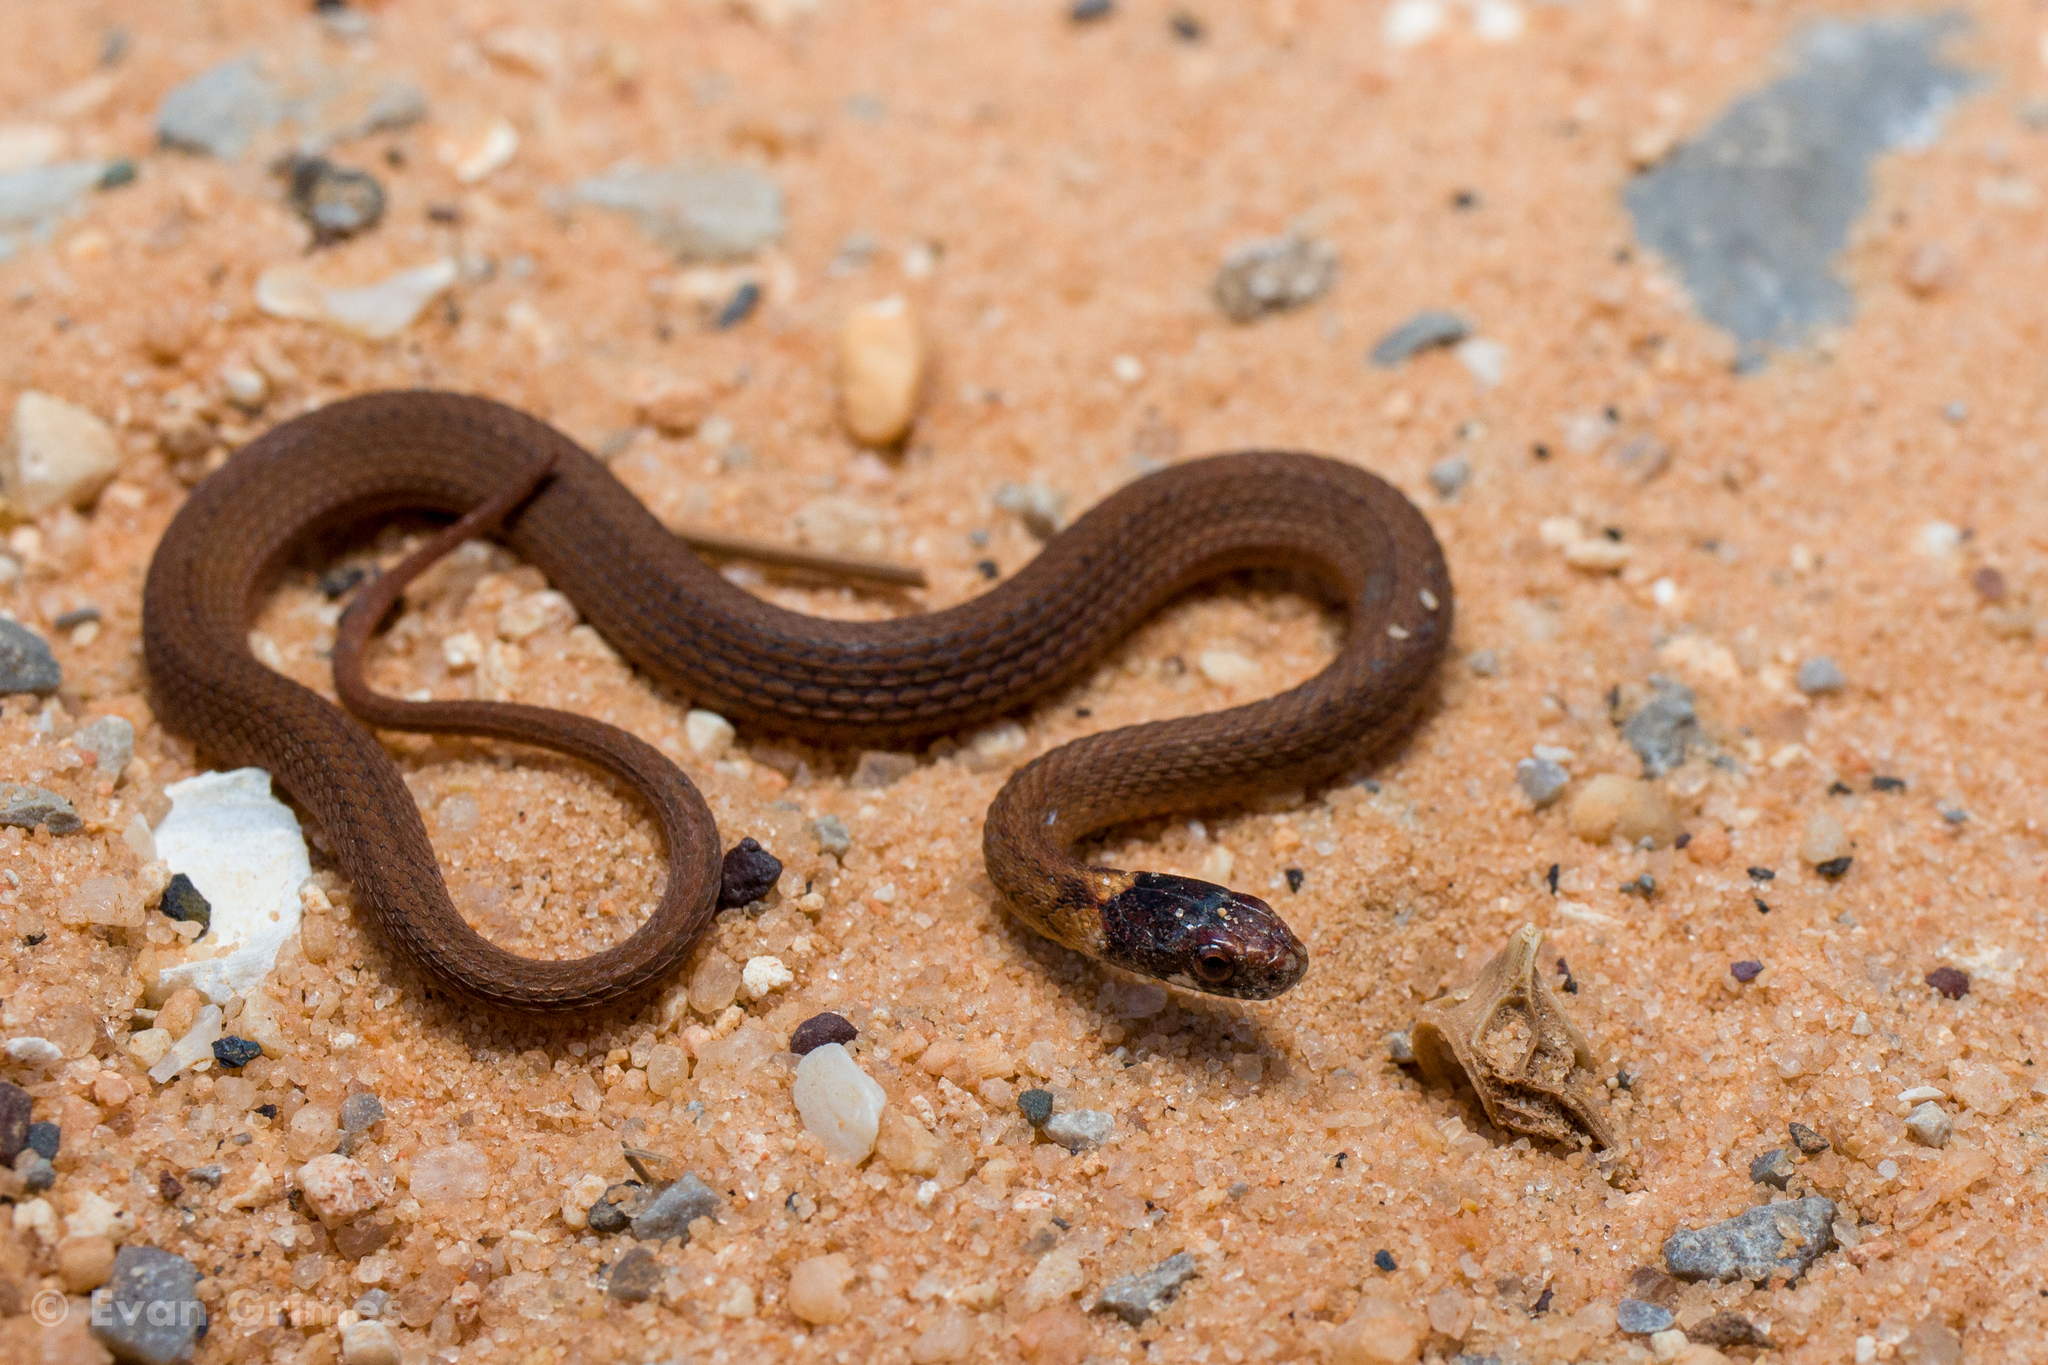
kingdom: Animalia
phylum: Chordata
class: Squamata
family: Colubridae
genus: Storeria
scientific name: Storeria occipitomaculata
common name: Redbelly snake
